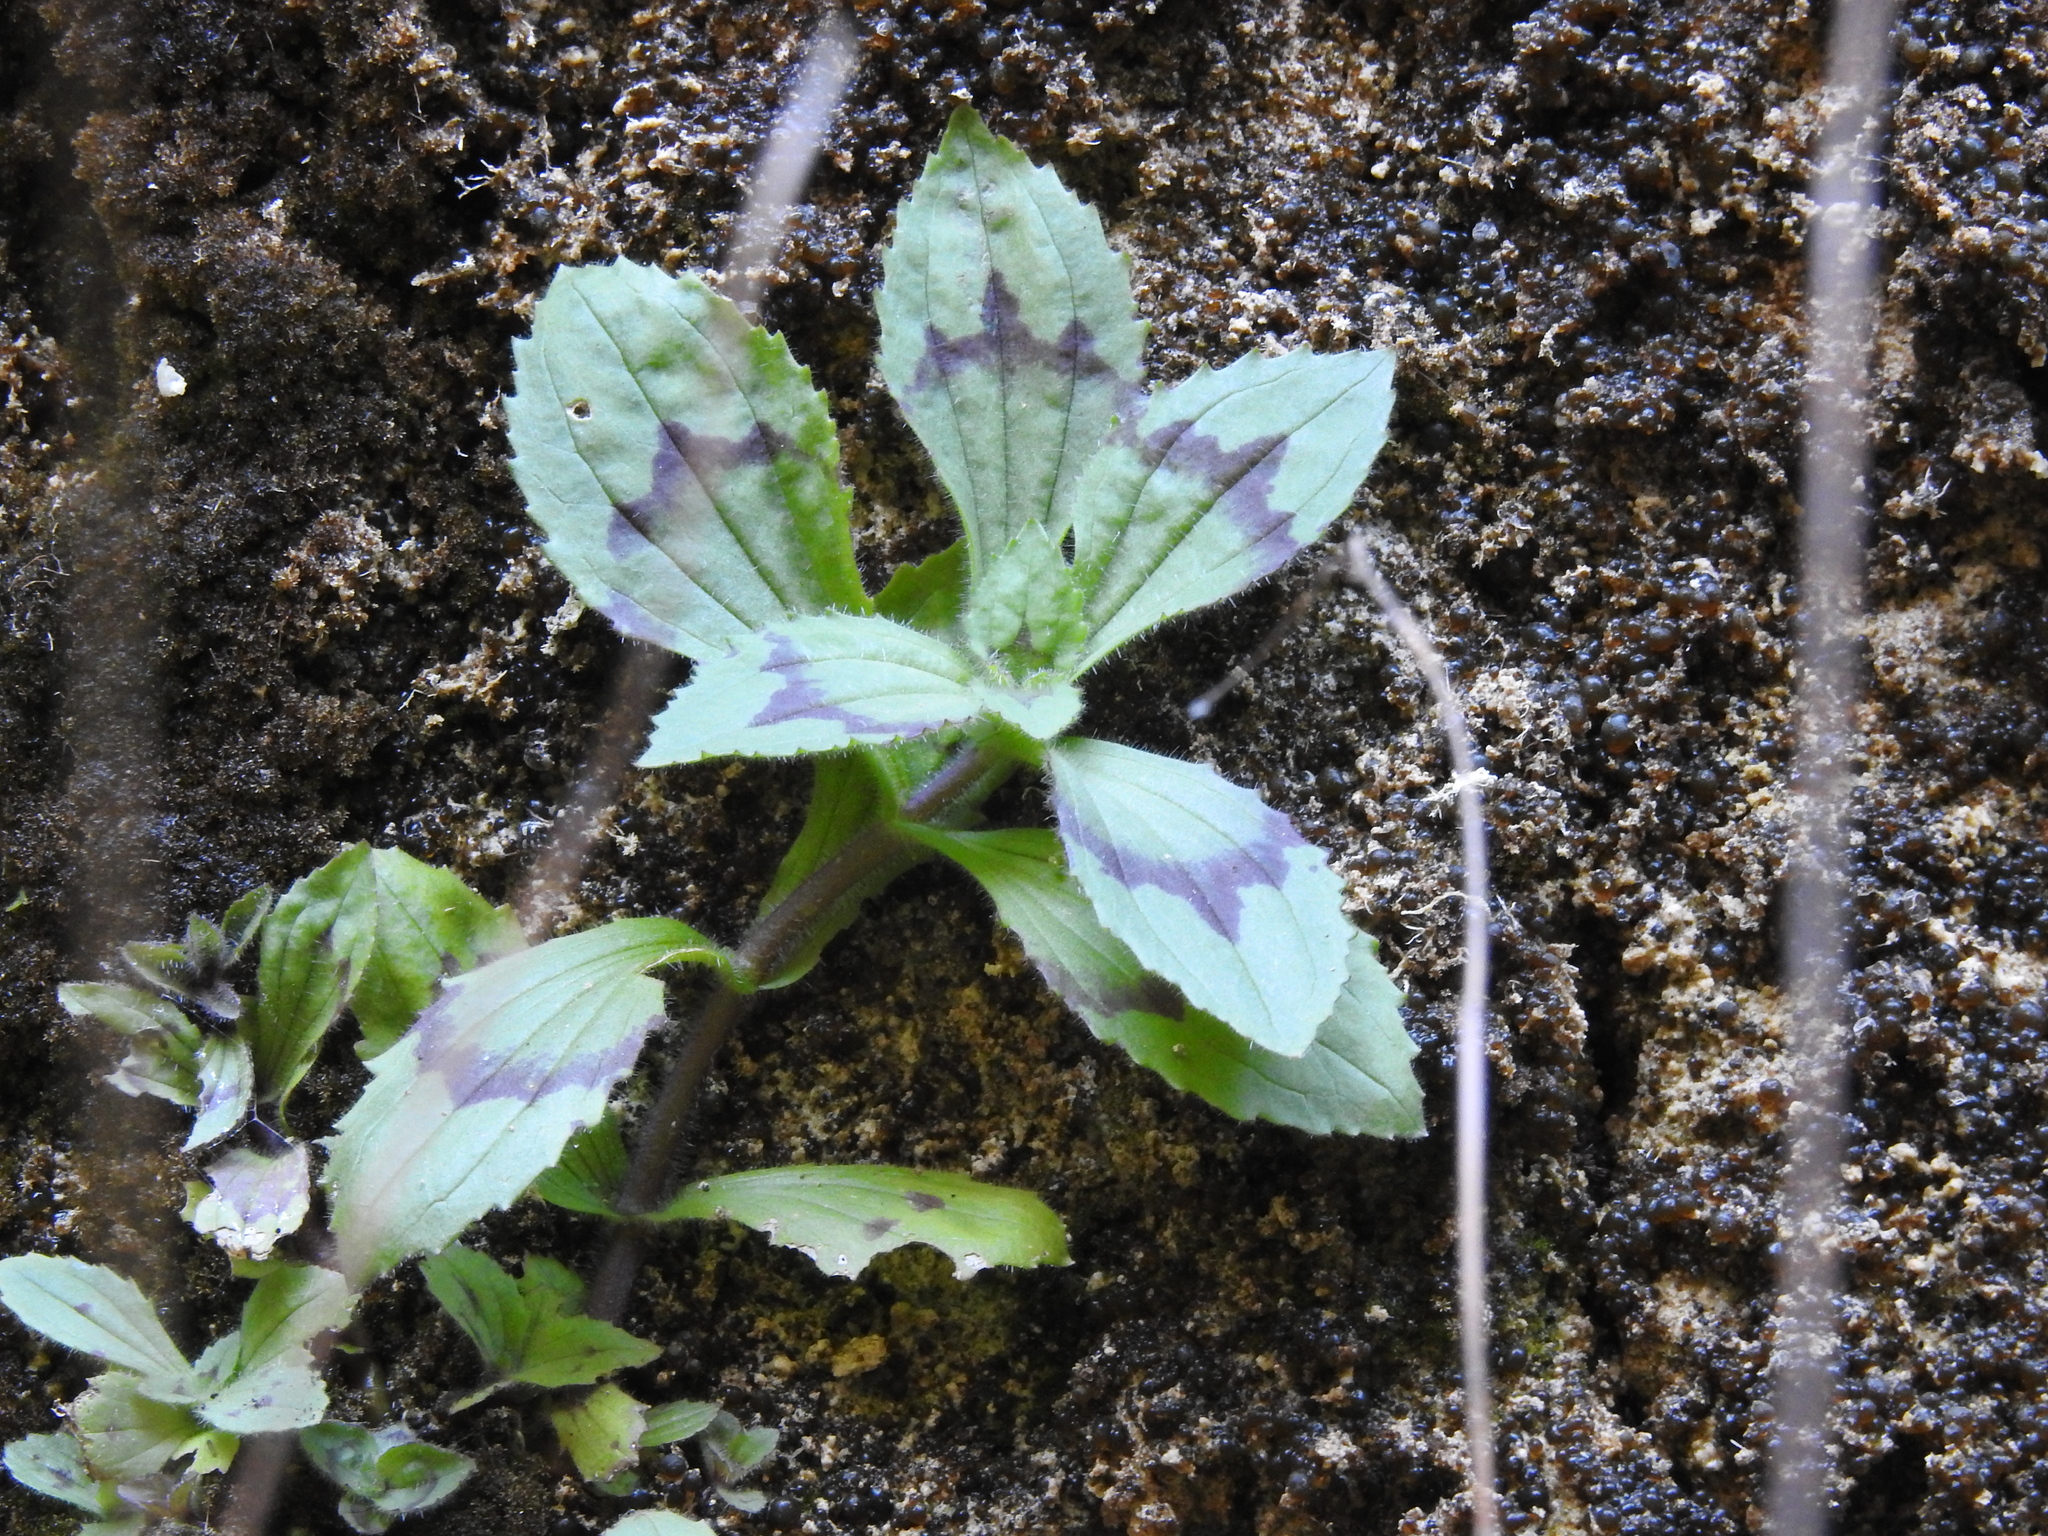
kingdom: Plantae
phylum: Tracheophyta
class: Magnoliopsida
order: Lamiales
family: Phrymaceae
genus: Erythranthe
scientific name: Erythranthe verbenacea
